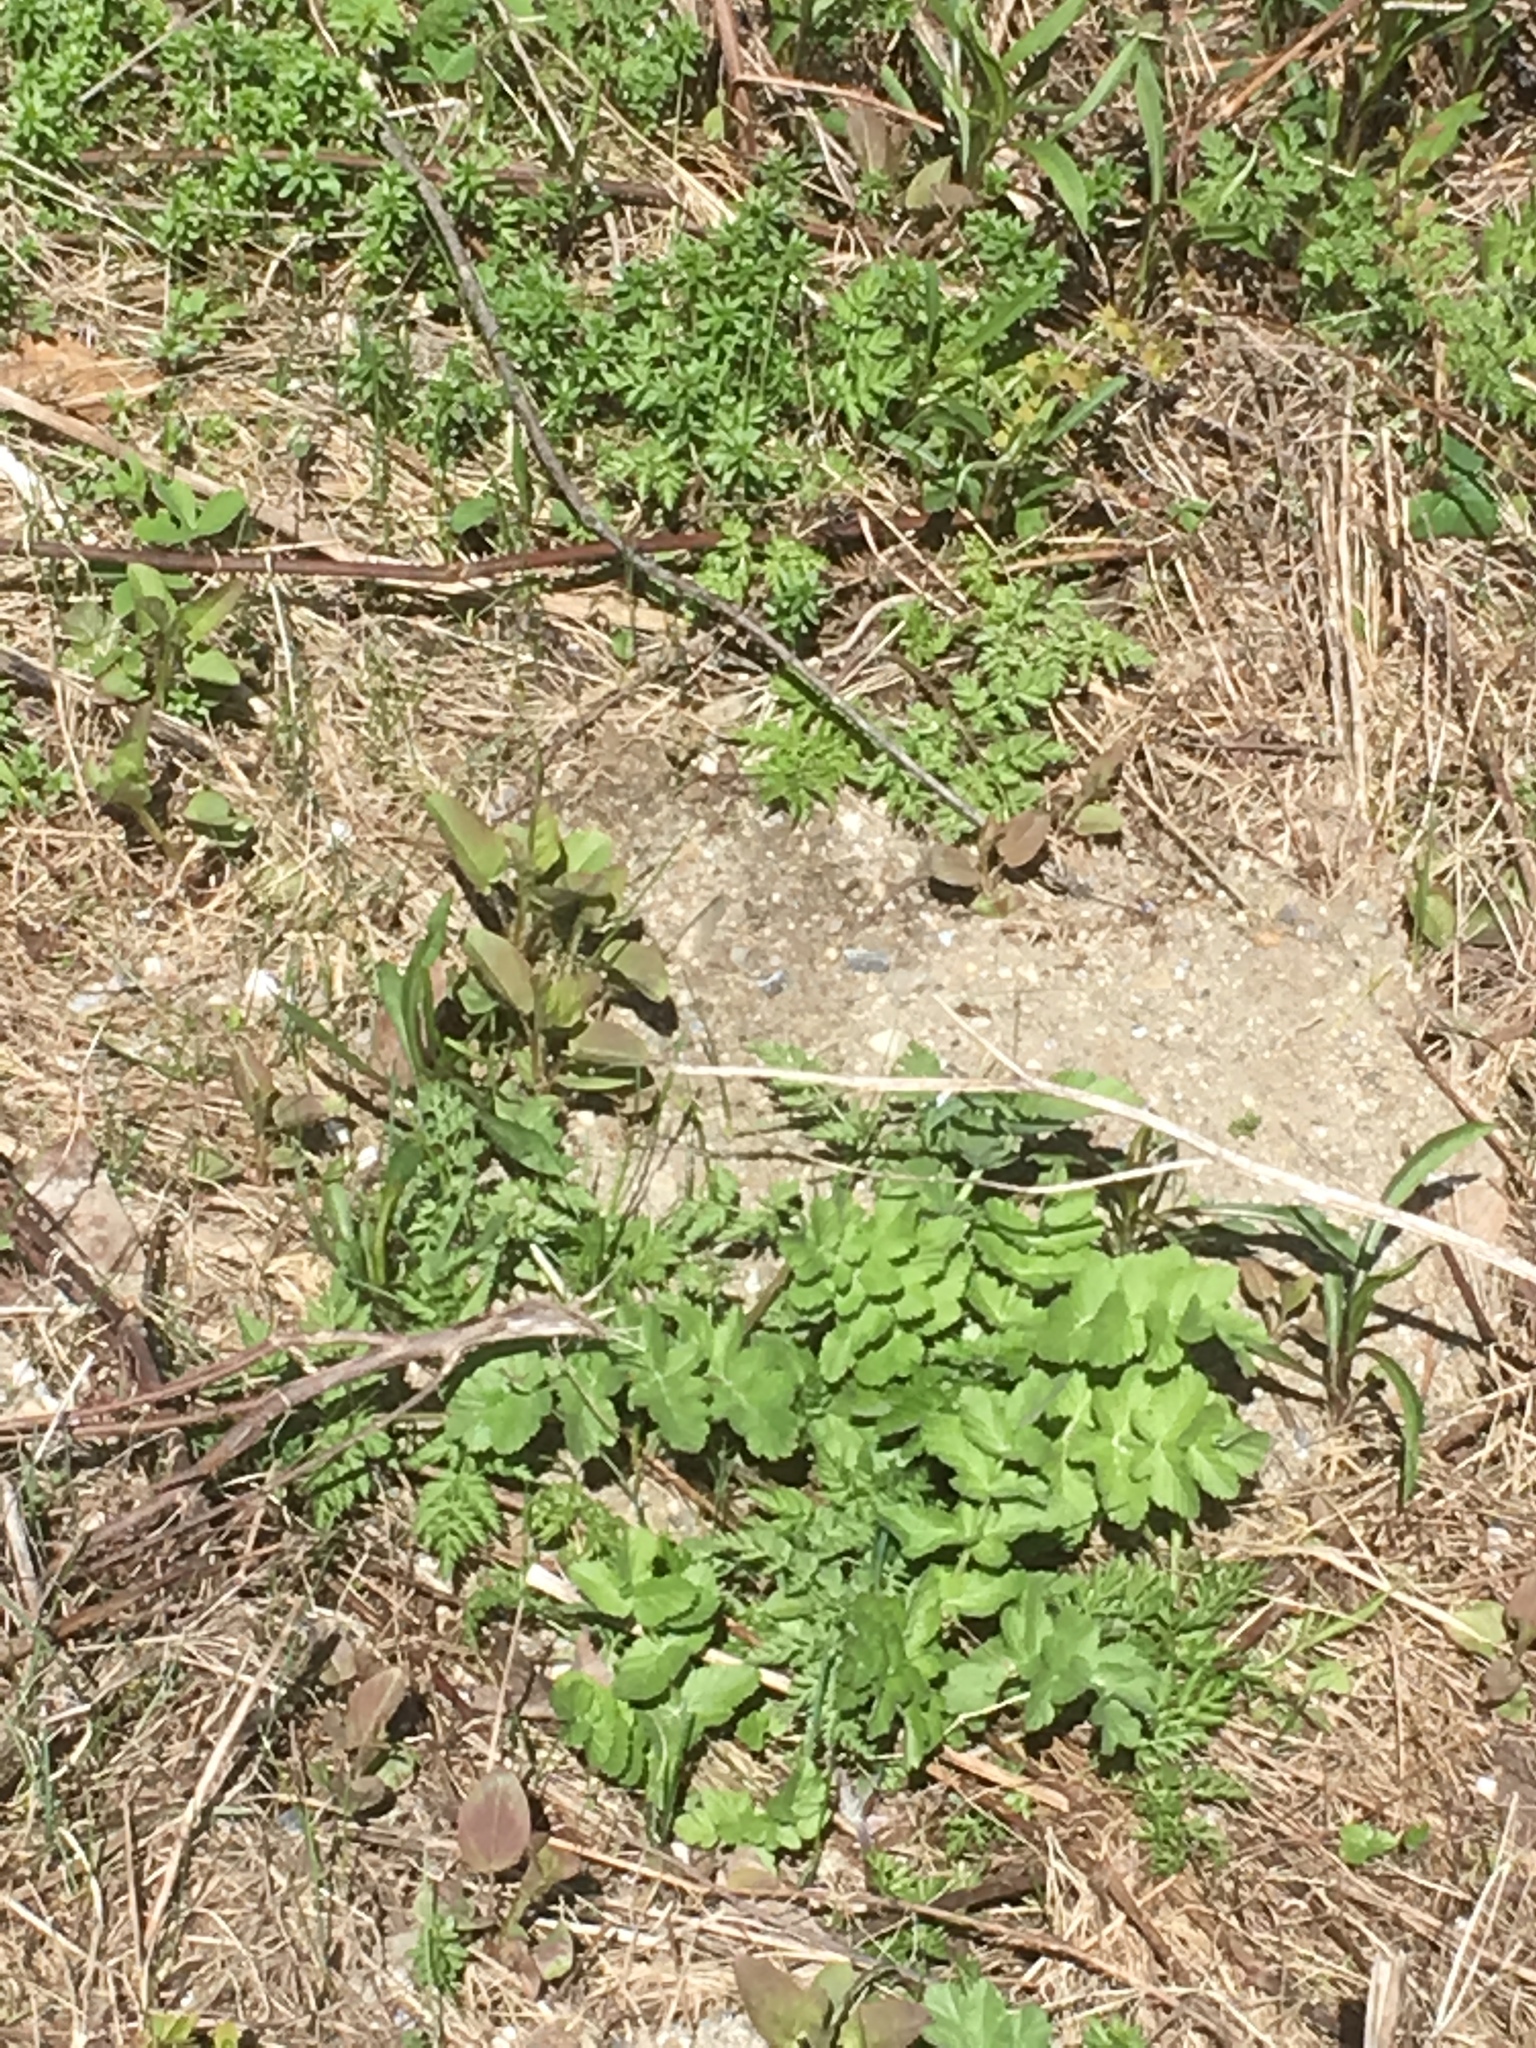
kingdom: Plantae
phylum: Tracheophyta
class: Magnoliopsida
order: Apiales
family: Apiaceae
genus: Pastinaca
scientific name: Pastinaca sativa
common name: Wild parsnip
